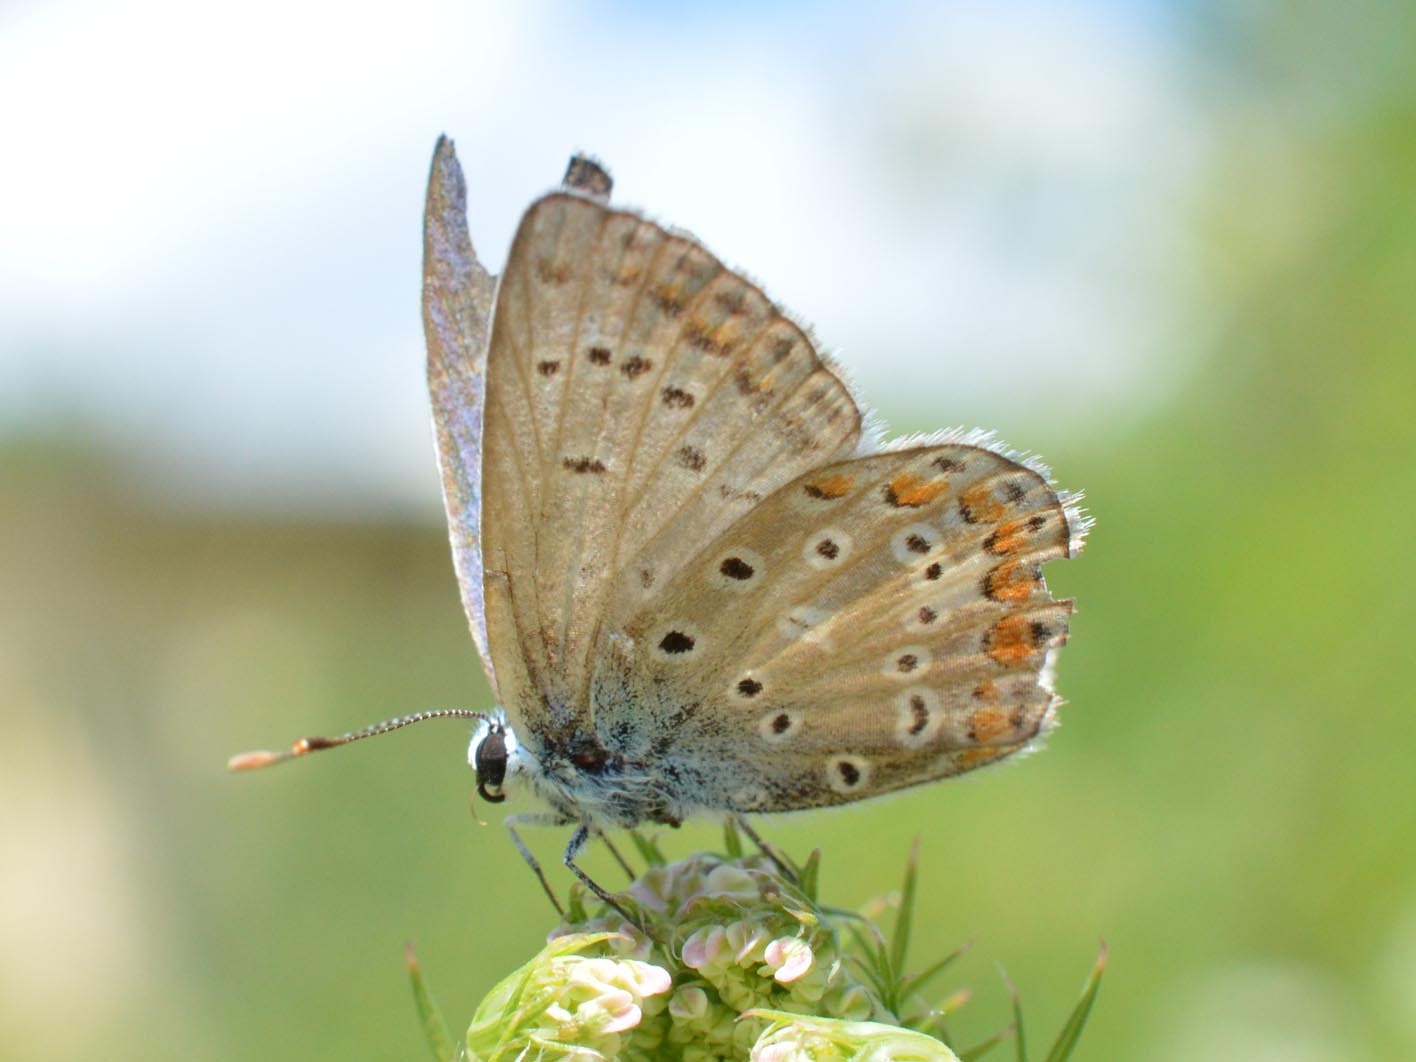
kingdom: Animalia
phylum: Arthropoda
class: Insecta
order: Lepidoptera
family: Lycaenidae
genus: Polyommatus
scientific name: Polyommatus icarus
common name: Common blue
